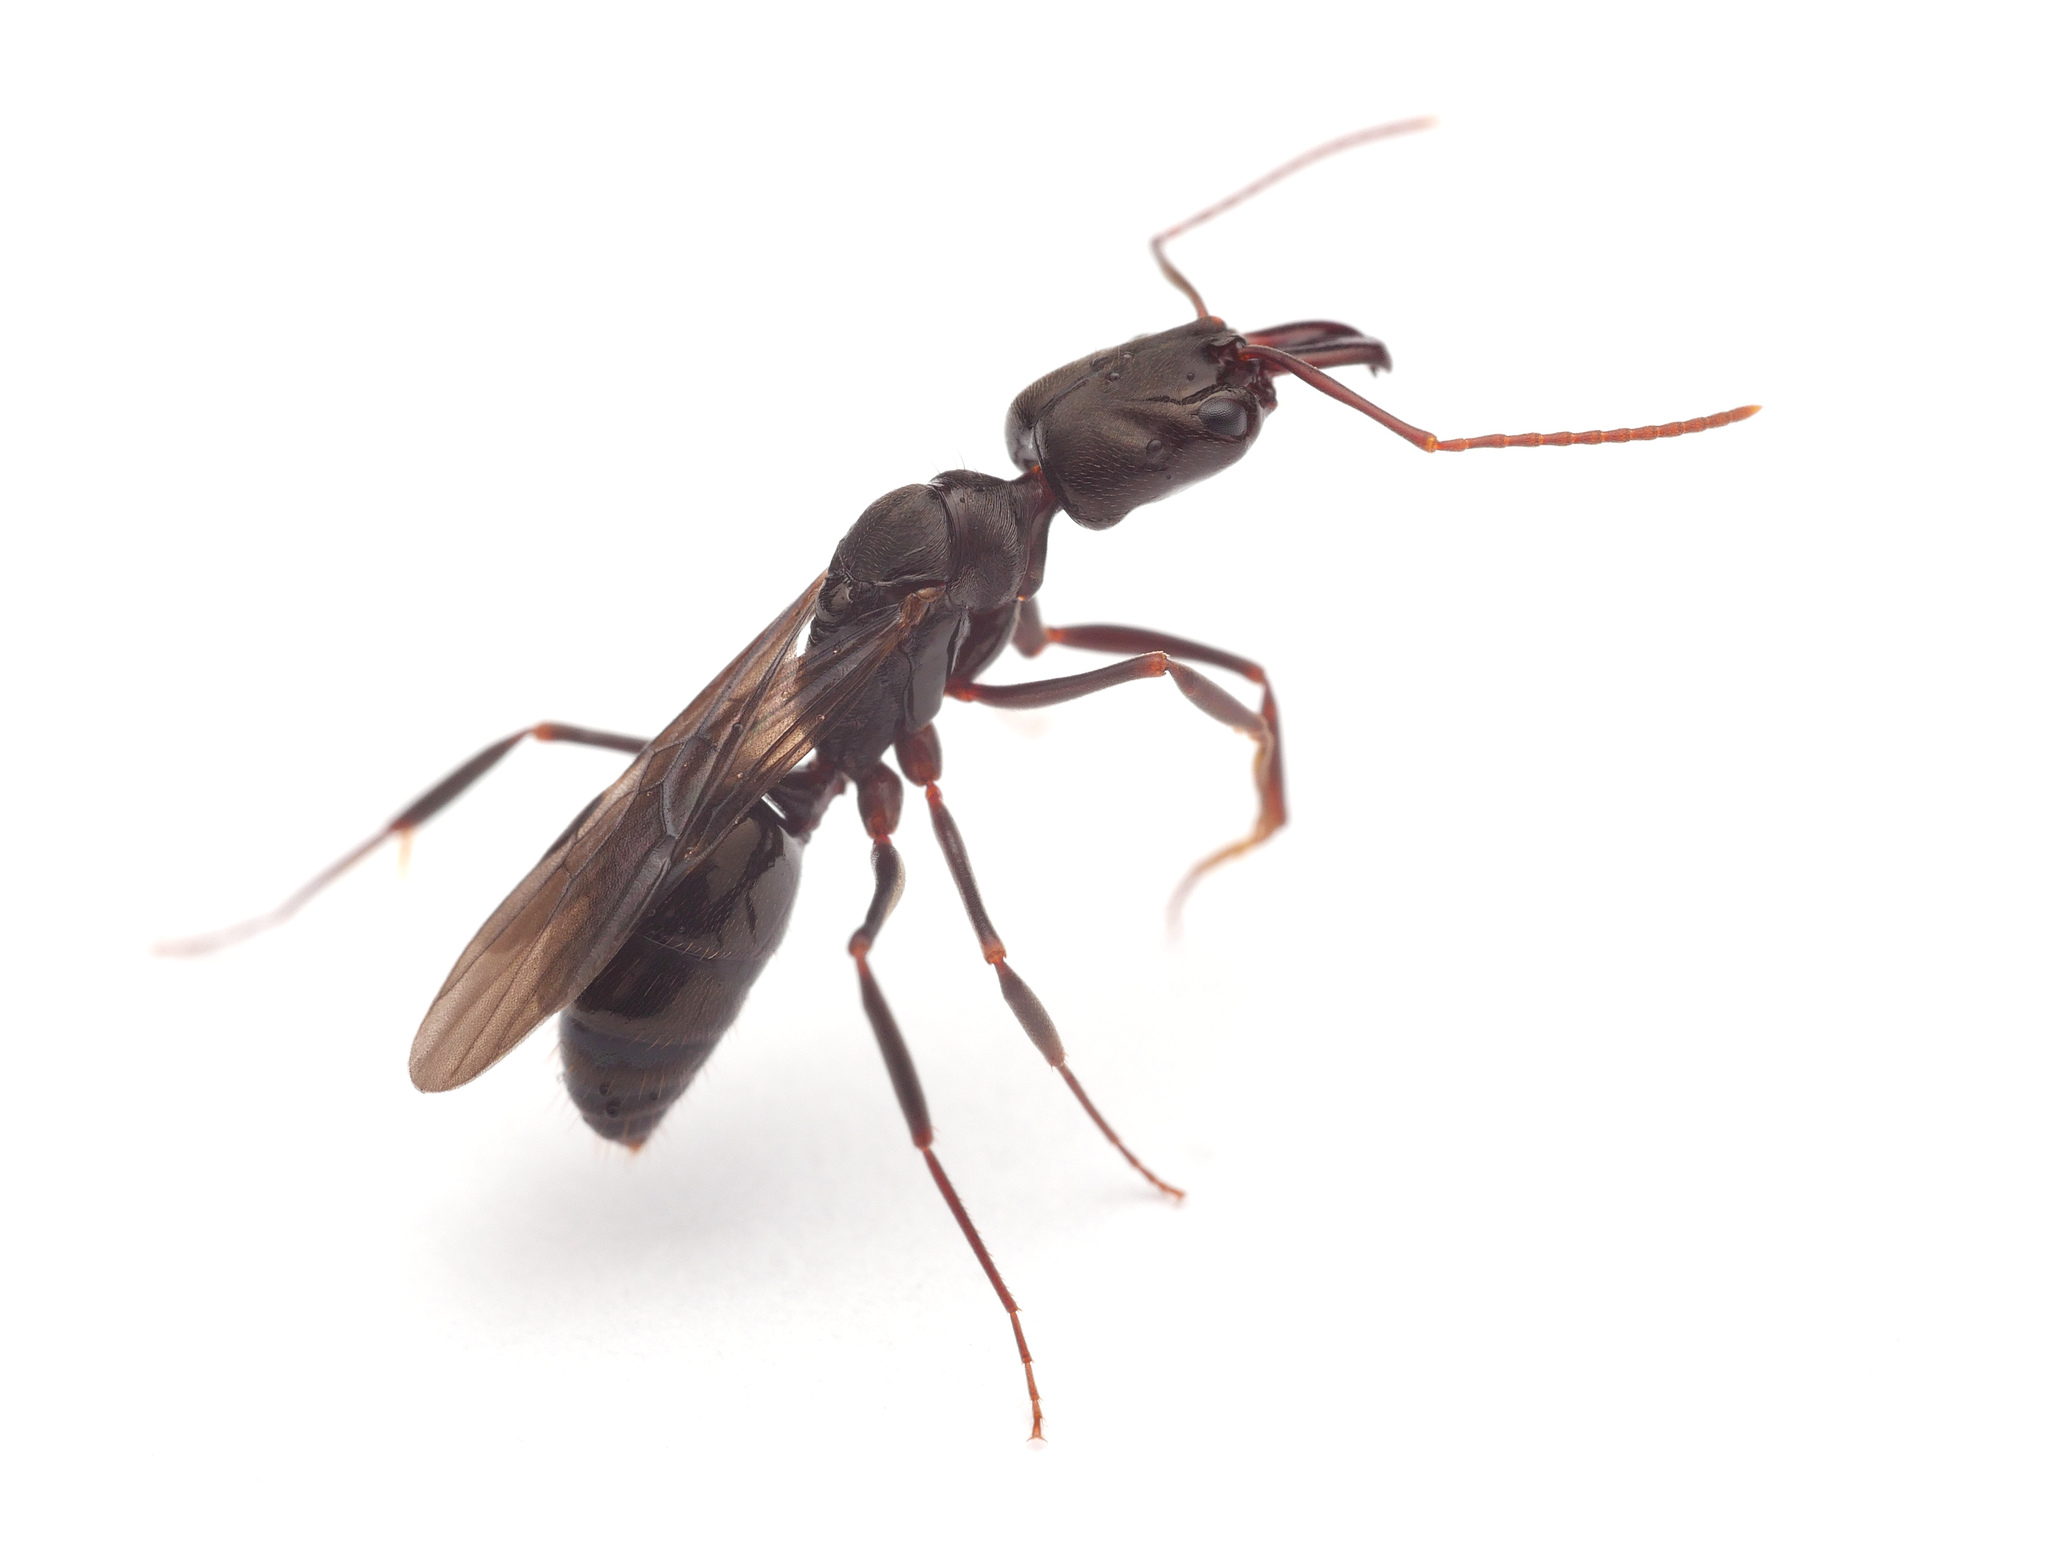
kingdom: Animalia
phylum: Arthropoda
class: Insecta
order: Hymenoptera
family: Formicidae
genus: Odontomachus
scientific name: Odontomachus simillimus
